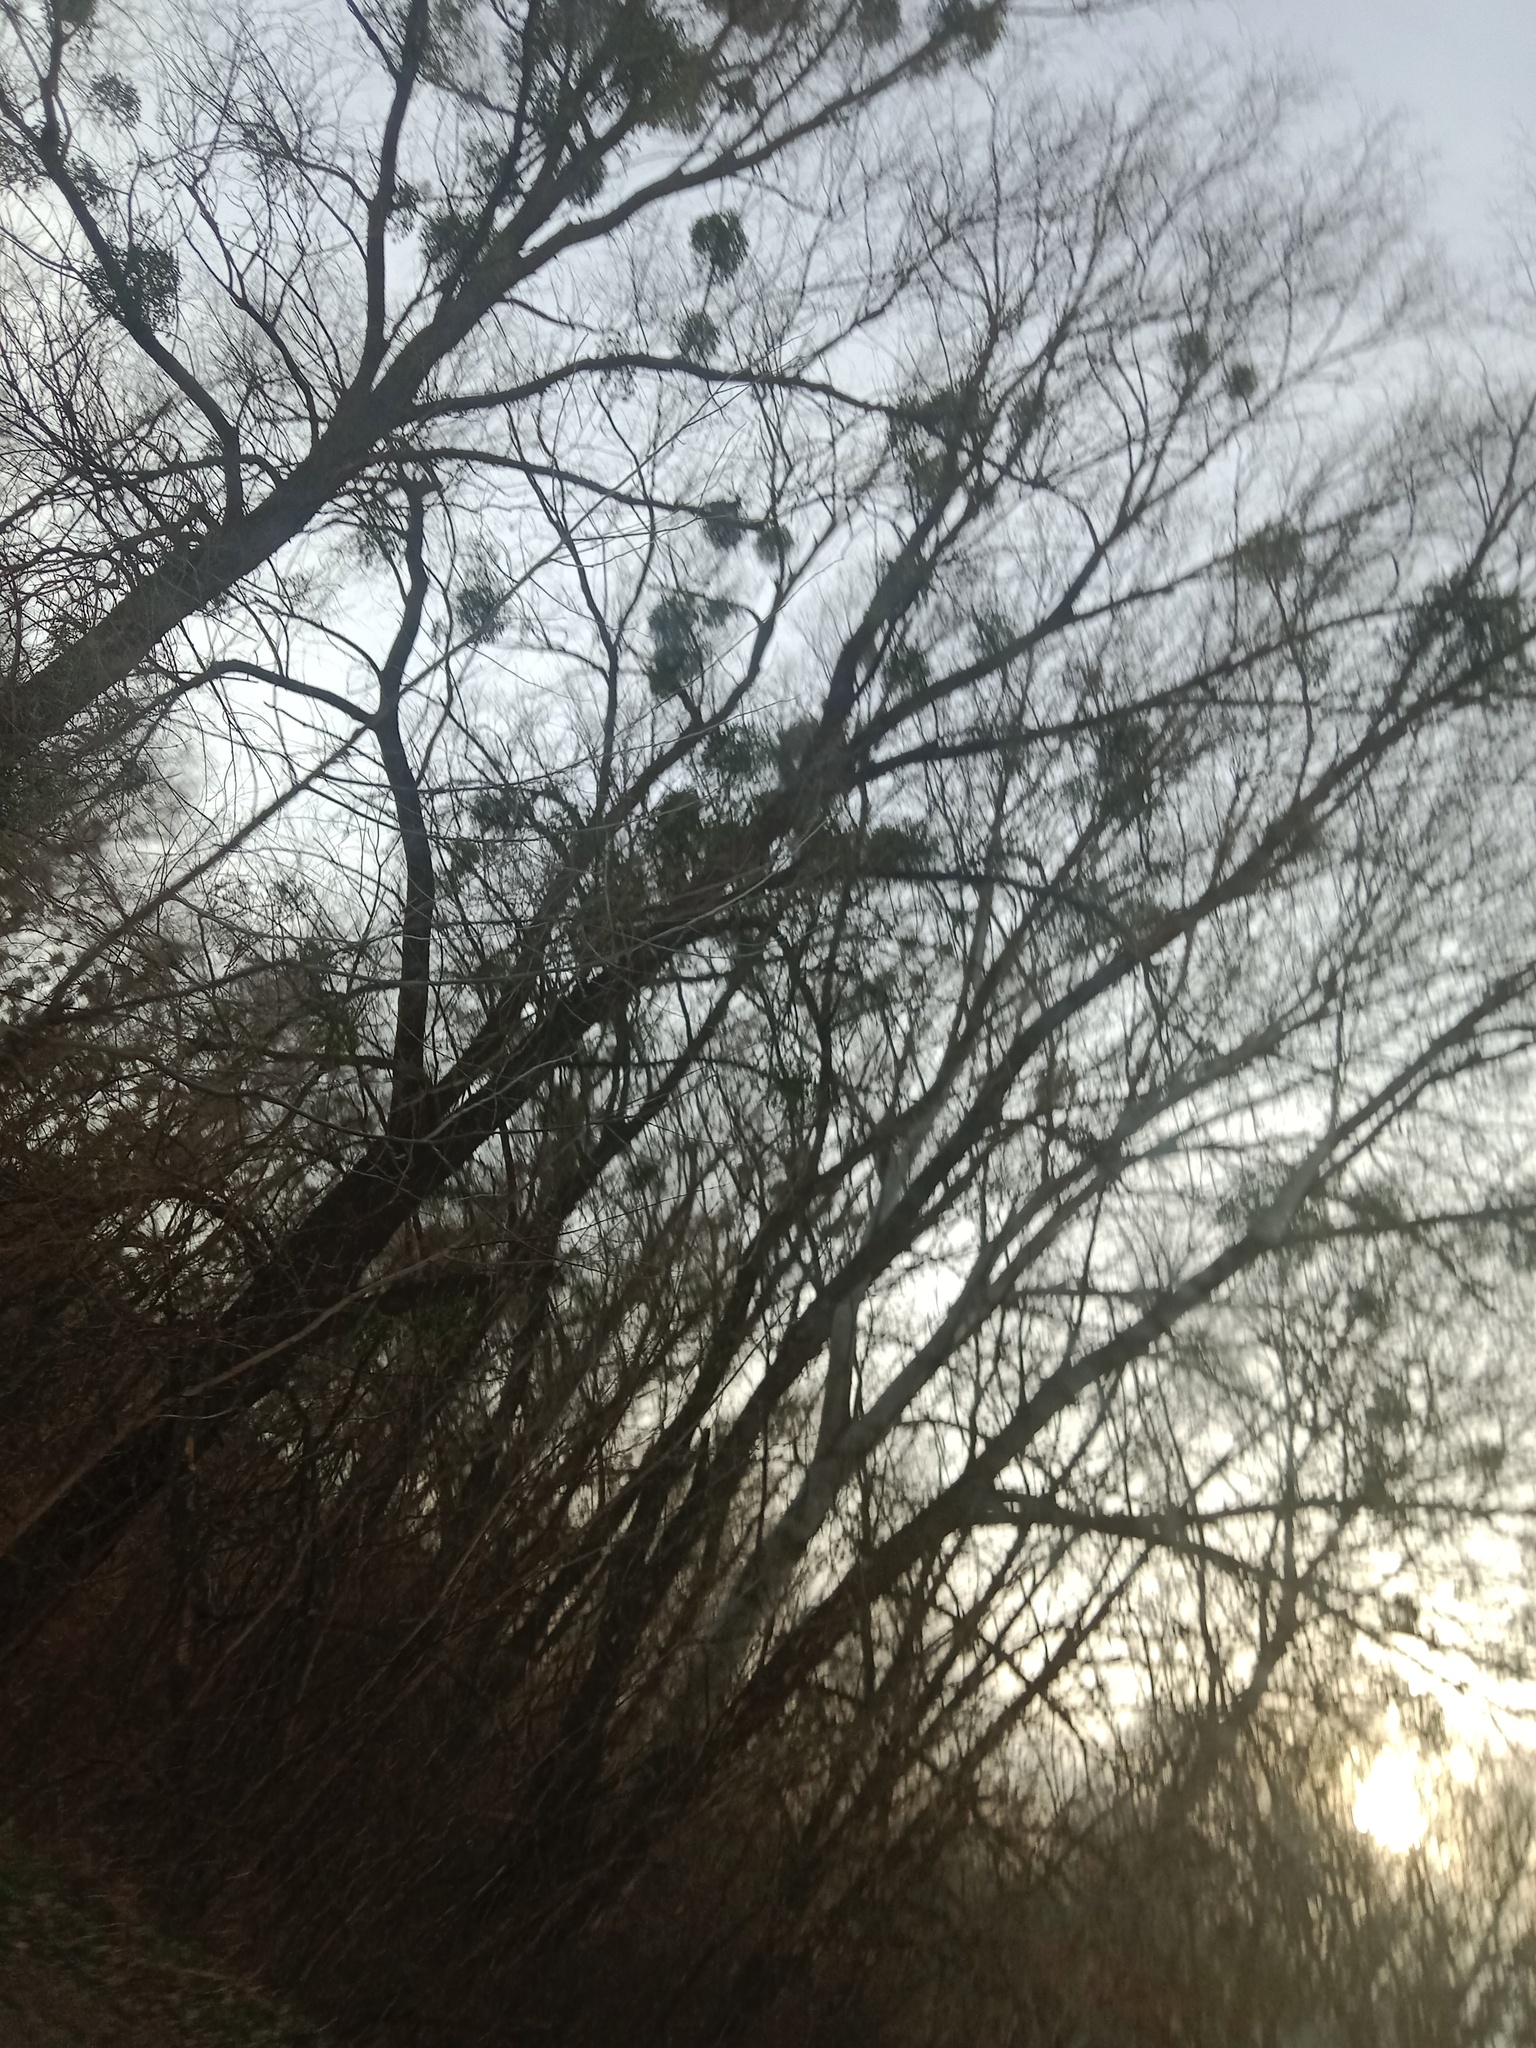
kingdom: Plantae
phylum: Tracheophyta
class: Magnoliopsida
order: Santalales
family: Viscaceae
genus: Viscum
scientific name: Viscum album
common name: Mistletoe
